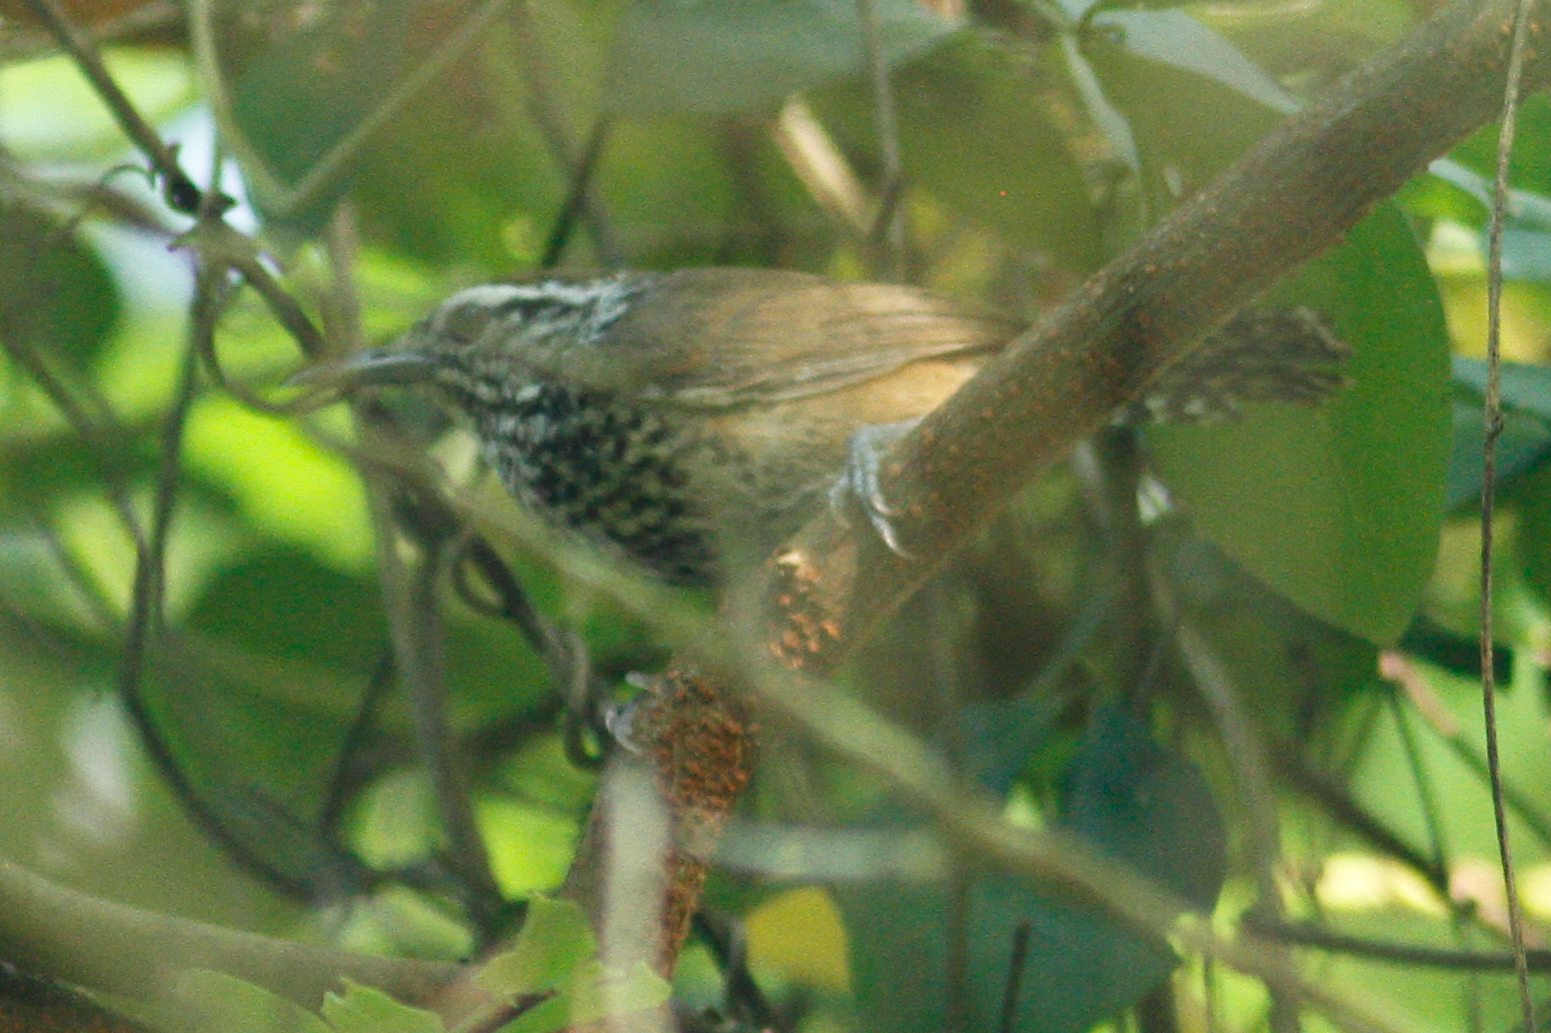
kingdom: Animalia
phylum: Chordata
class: Aves
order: Passeriformes
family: Troglodytidae
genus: Pheugopedius
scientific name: Pheugopedius sclateri
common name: Speckle-breasted wren
